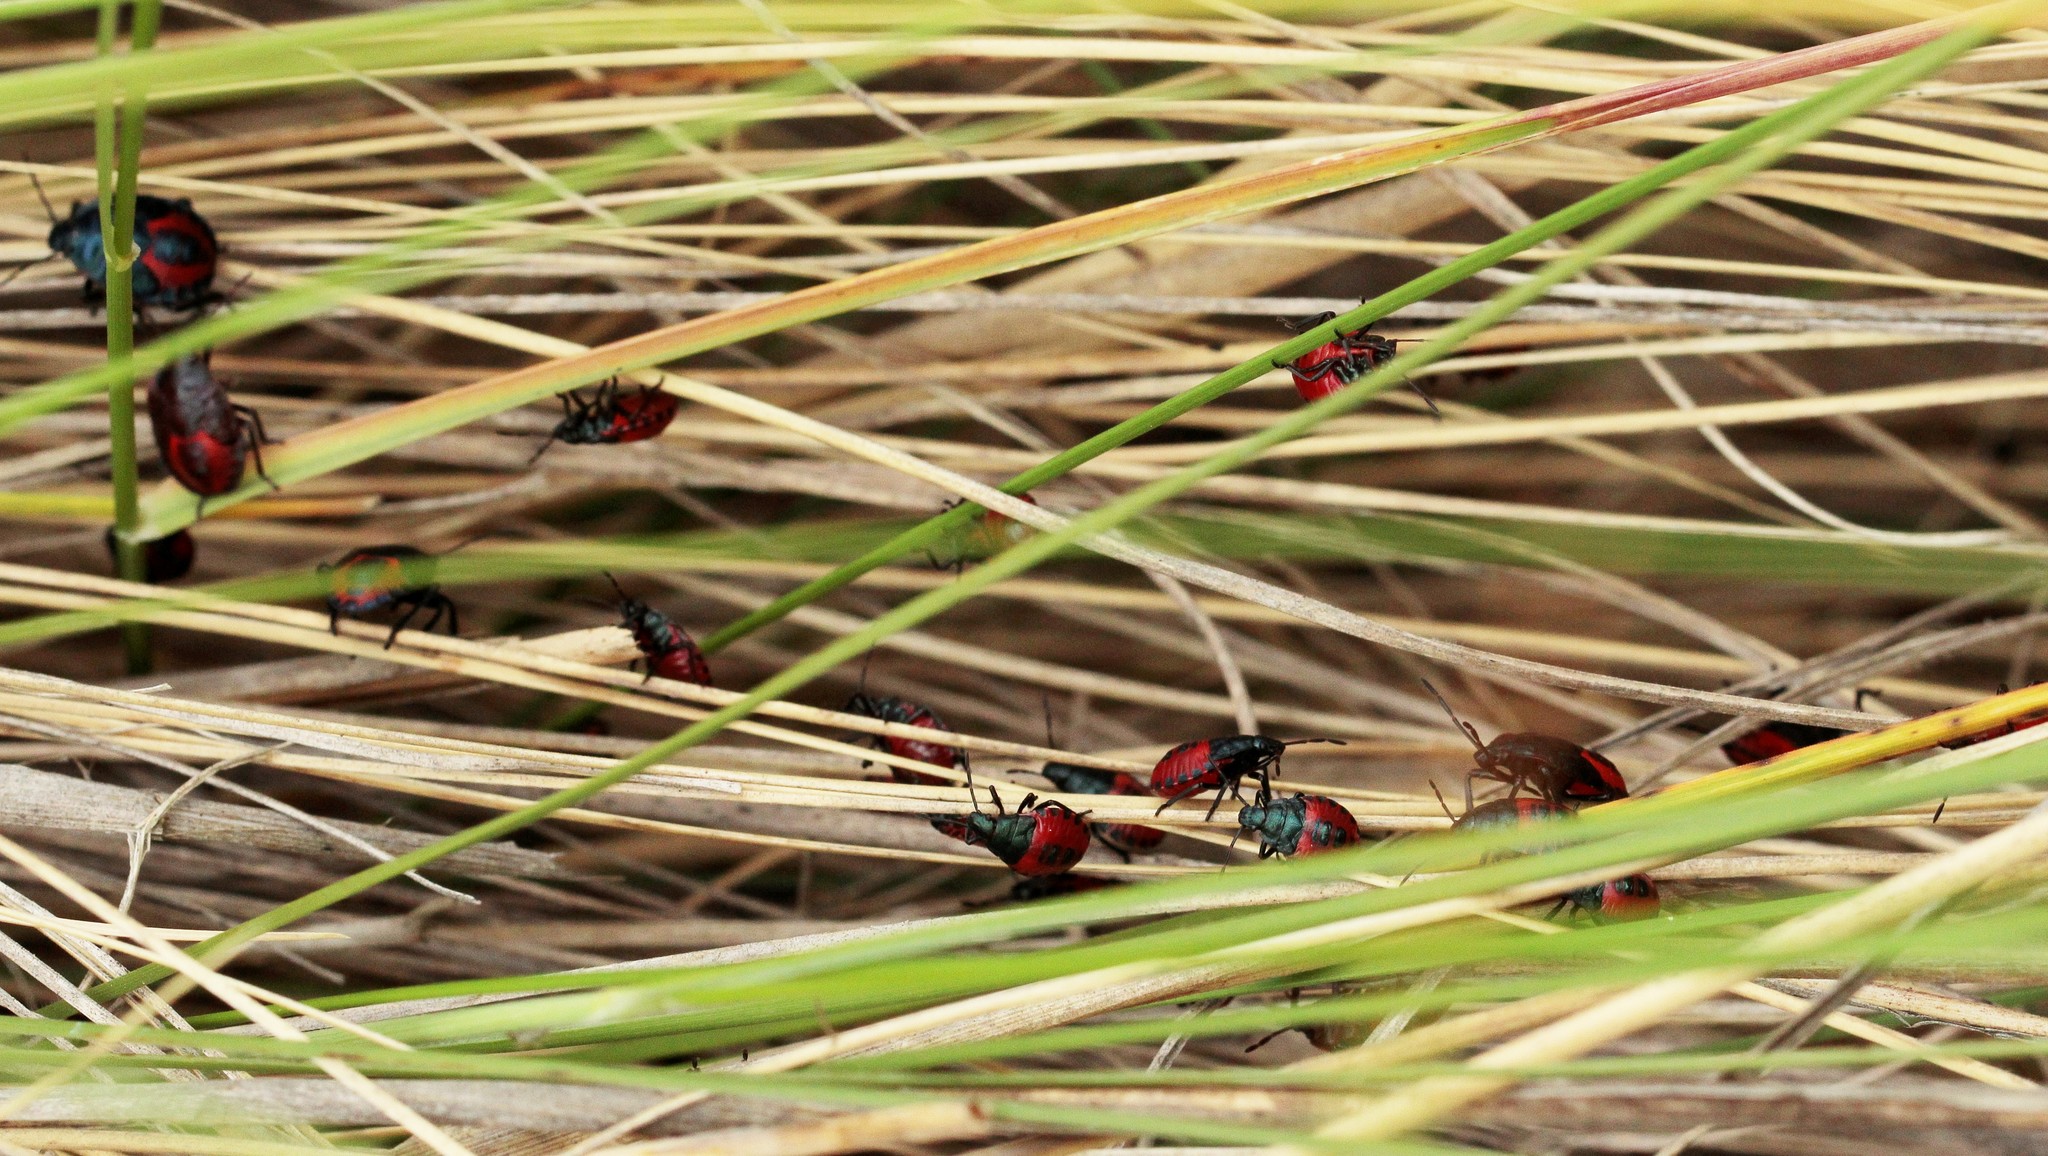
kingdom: Animalia
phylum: Arthropoda
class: Insecta
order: Hemiptera
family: Pentatomidae
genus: Jalla
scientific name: Jalla dumosa
